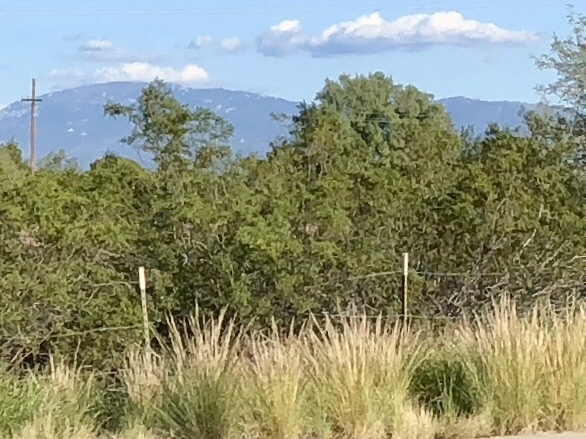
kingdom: Plantae
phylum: Tracheophyta
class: Magnoliopsida
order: Zygophyllales
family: Zygophyllaceae
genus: Larrea
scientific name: Larrea tridentata
